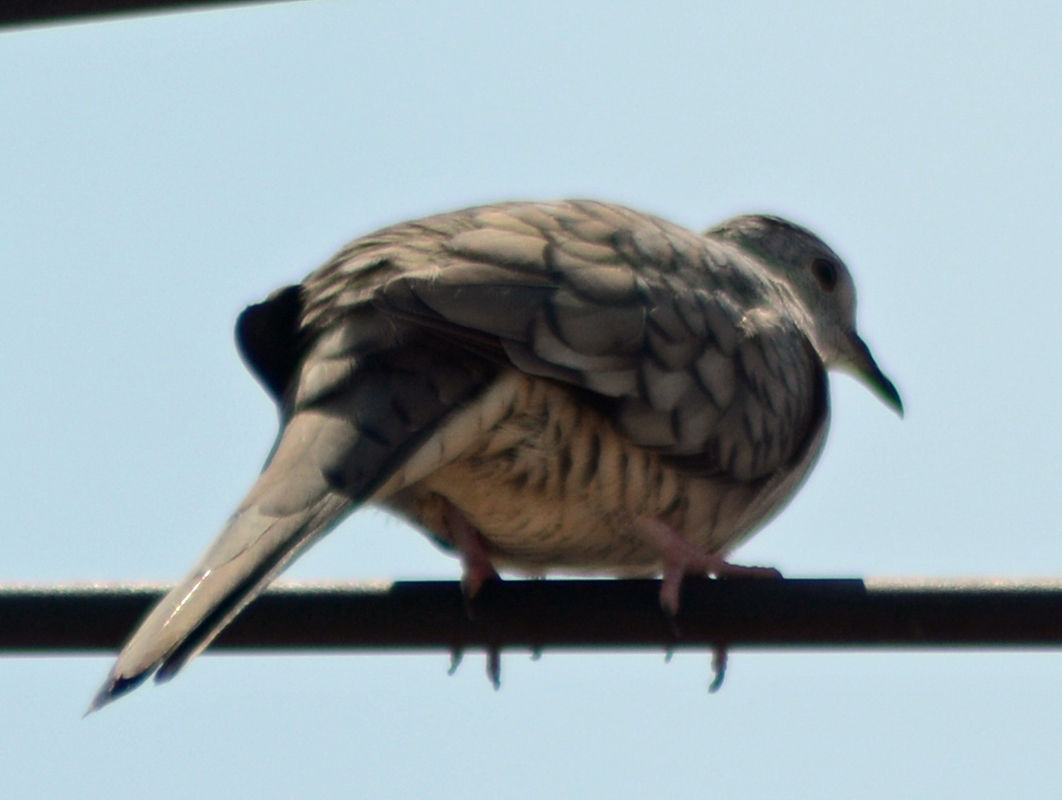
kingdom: Animalia
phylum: Chordata
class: Aves
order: Columbiformes
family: Columbidae
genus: Columbina
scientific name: Columbina inca
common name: Inca dove
